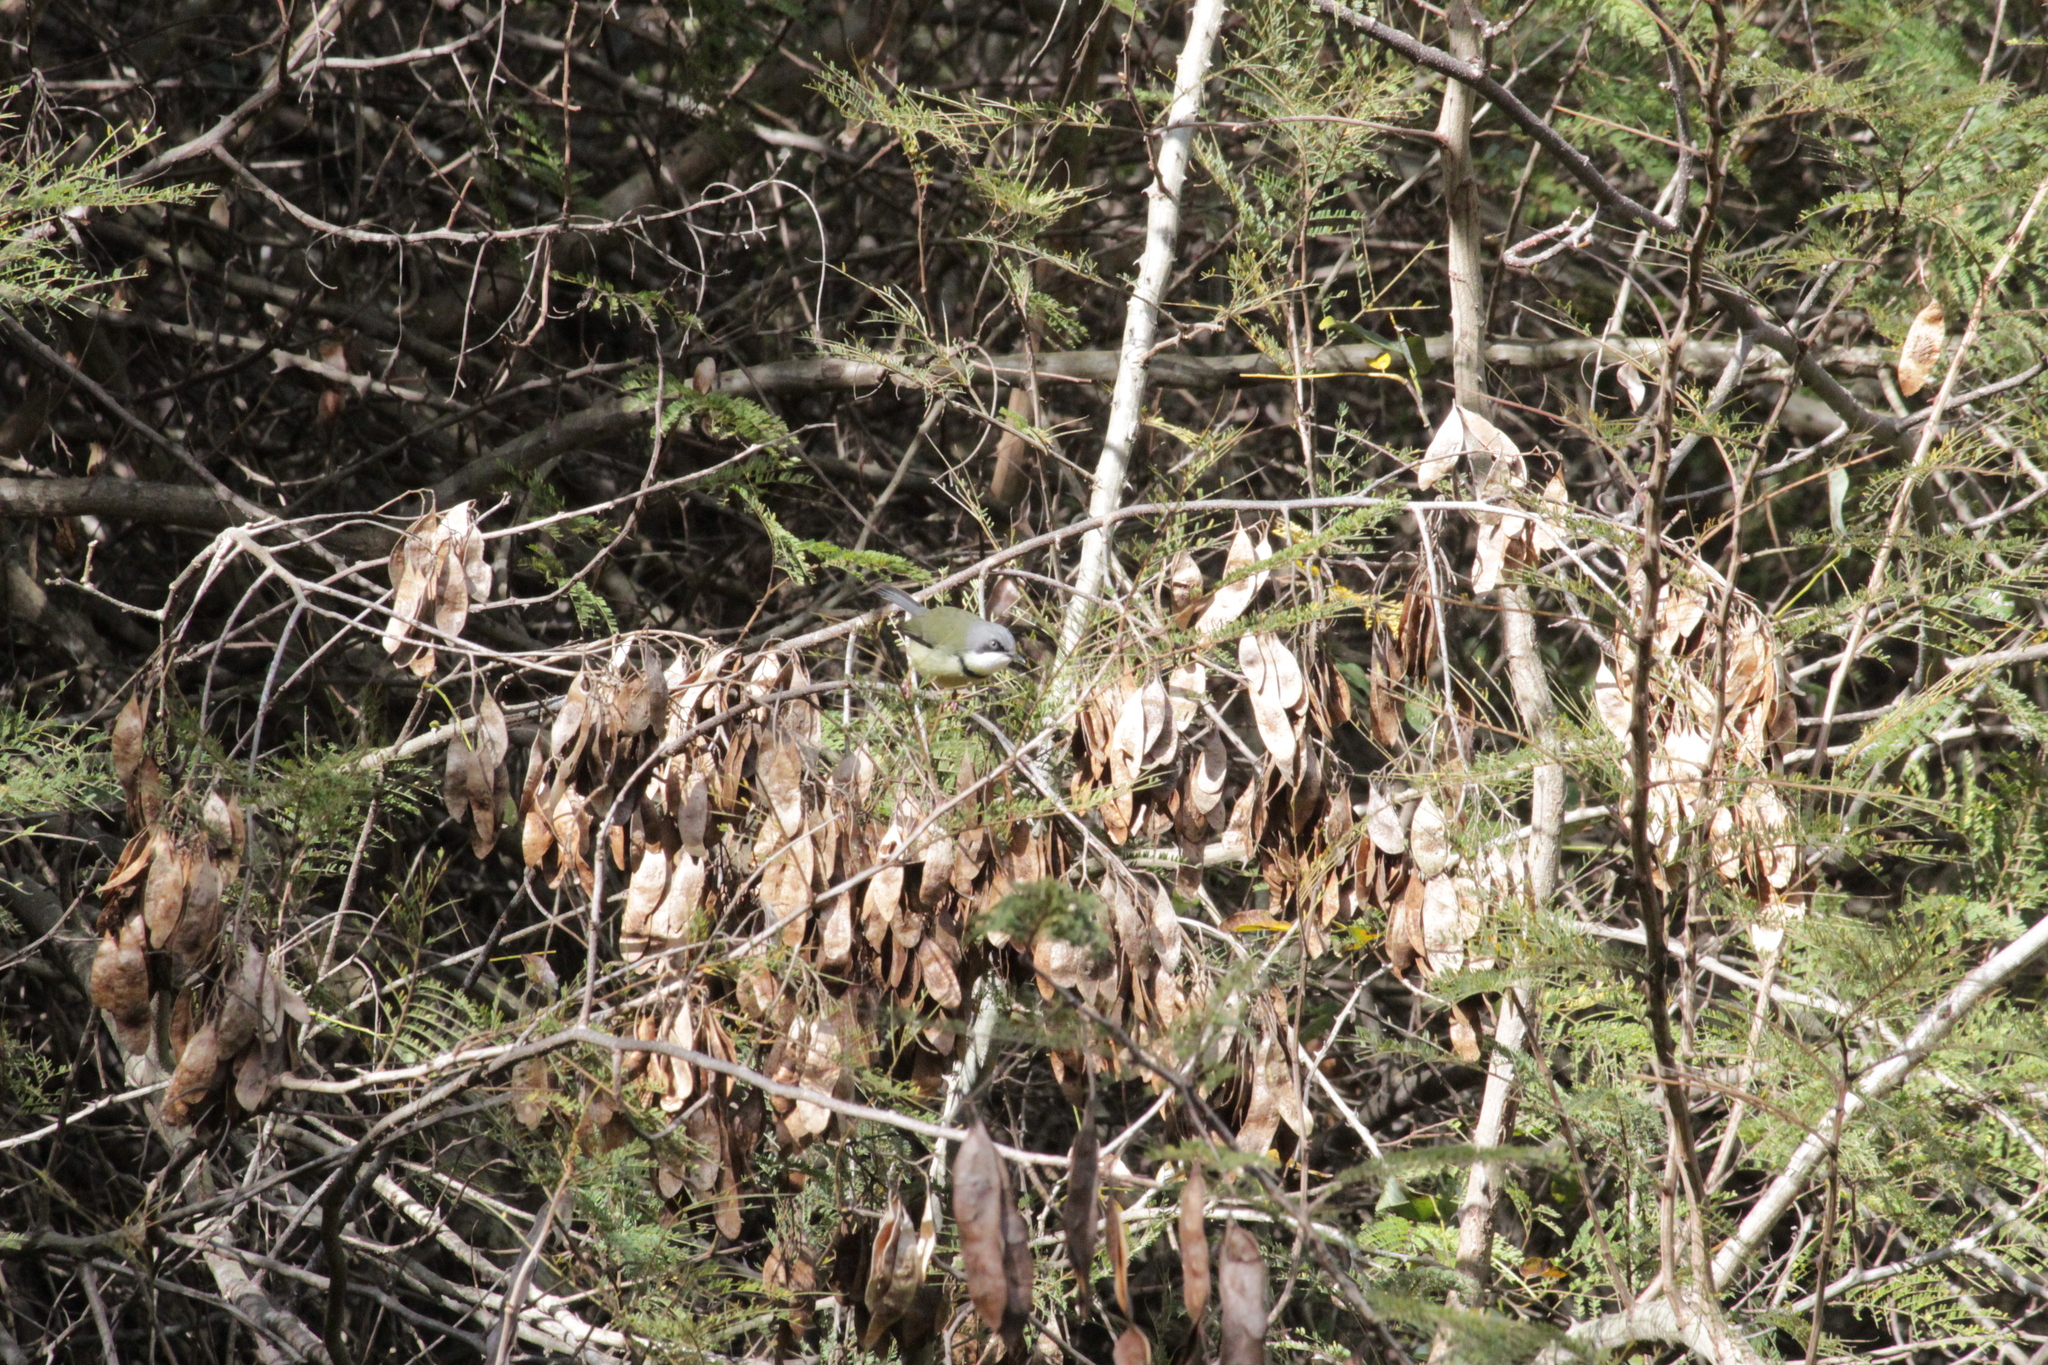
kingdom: Animalia
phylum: Chordata
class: Aves
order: Passeriformes
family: Cisticolidae
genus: Apalis
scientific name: Apalis thoracica
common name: Bar-throated apalis
